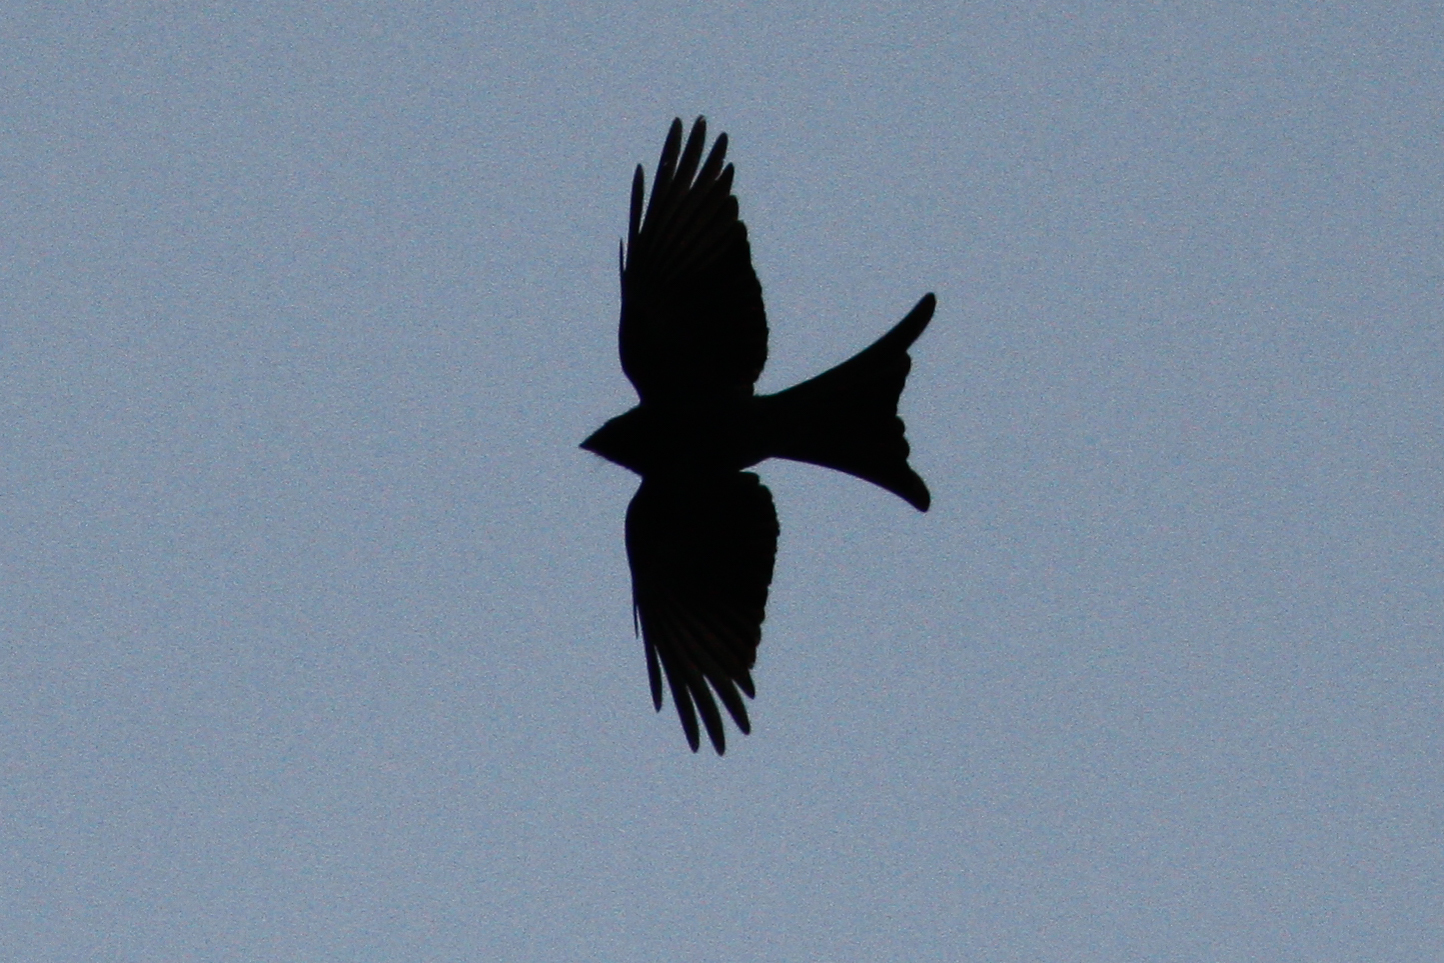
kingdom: Animalia
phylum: Chordata
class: Aves
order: Passeriformes
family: Dicruridae
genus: Dicrurus
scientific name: Dicrurus
